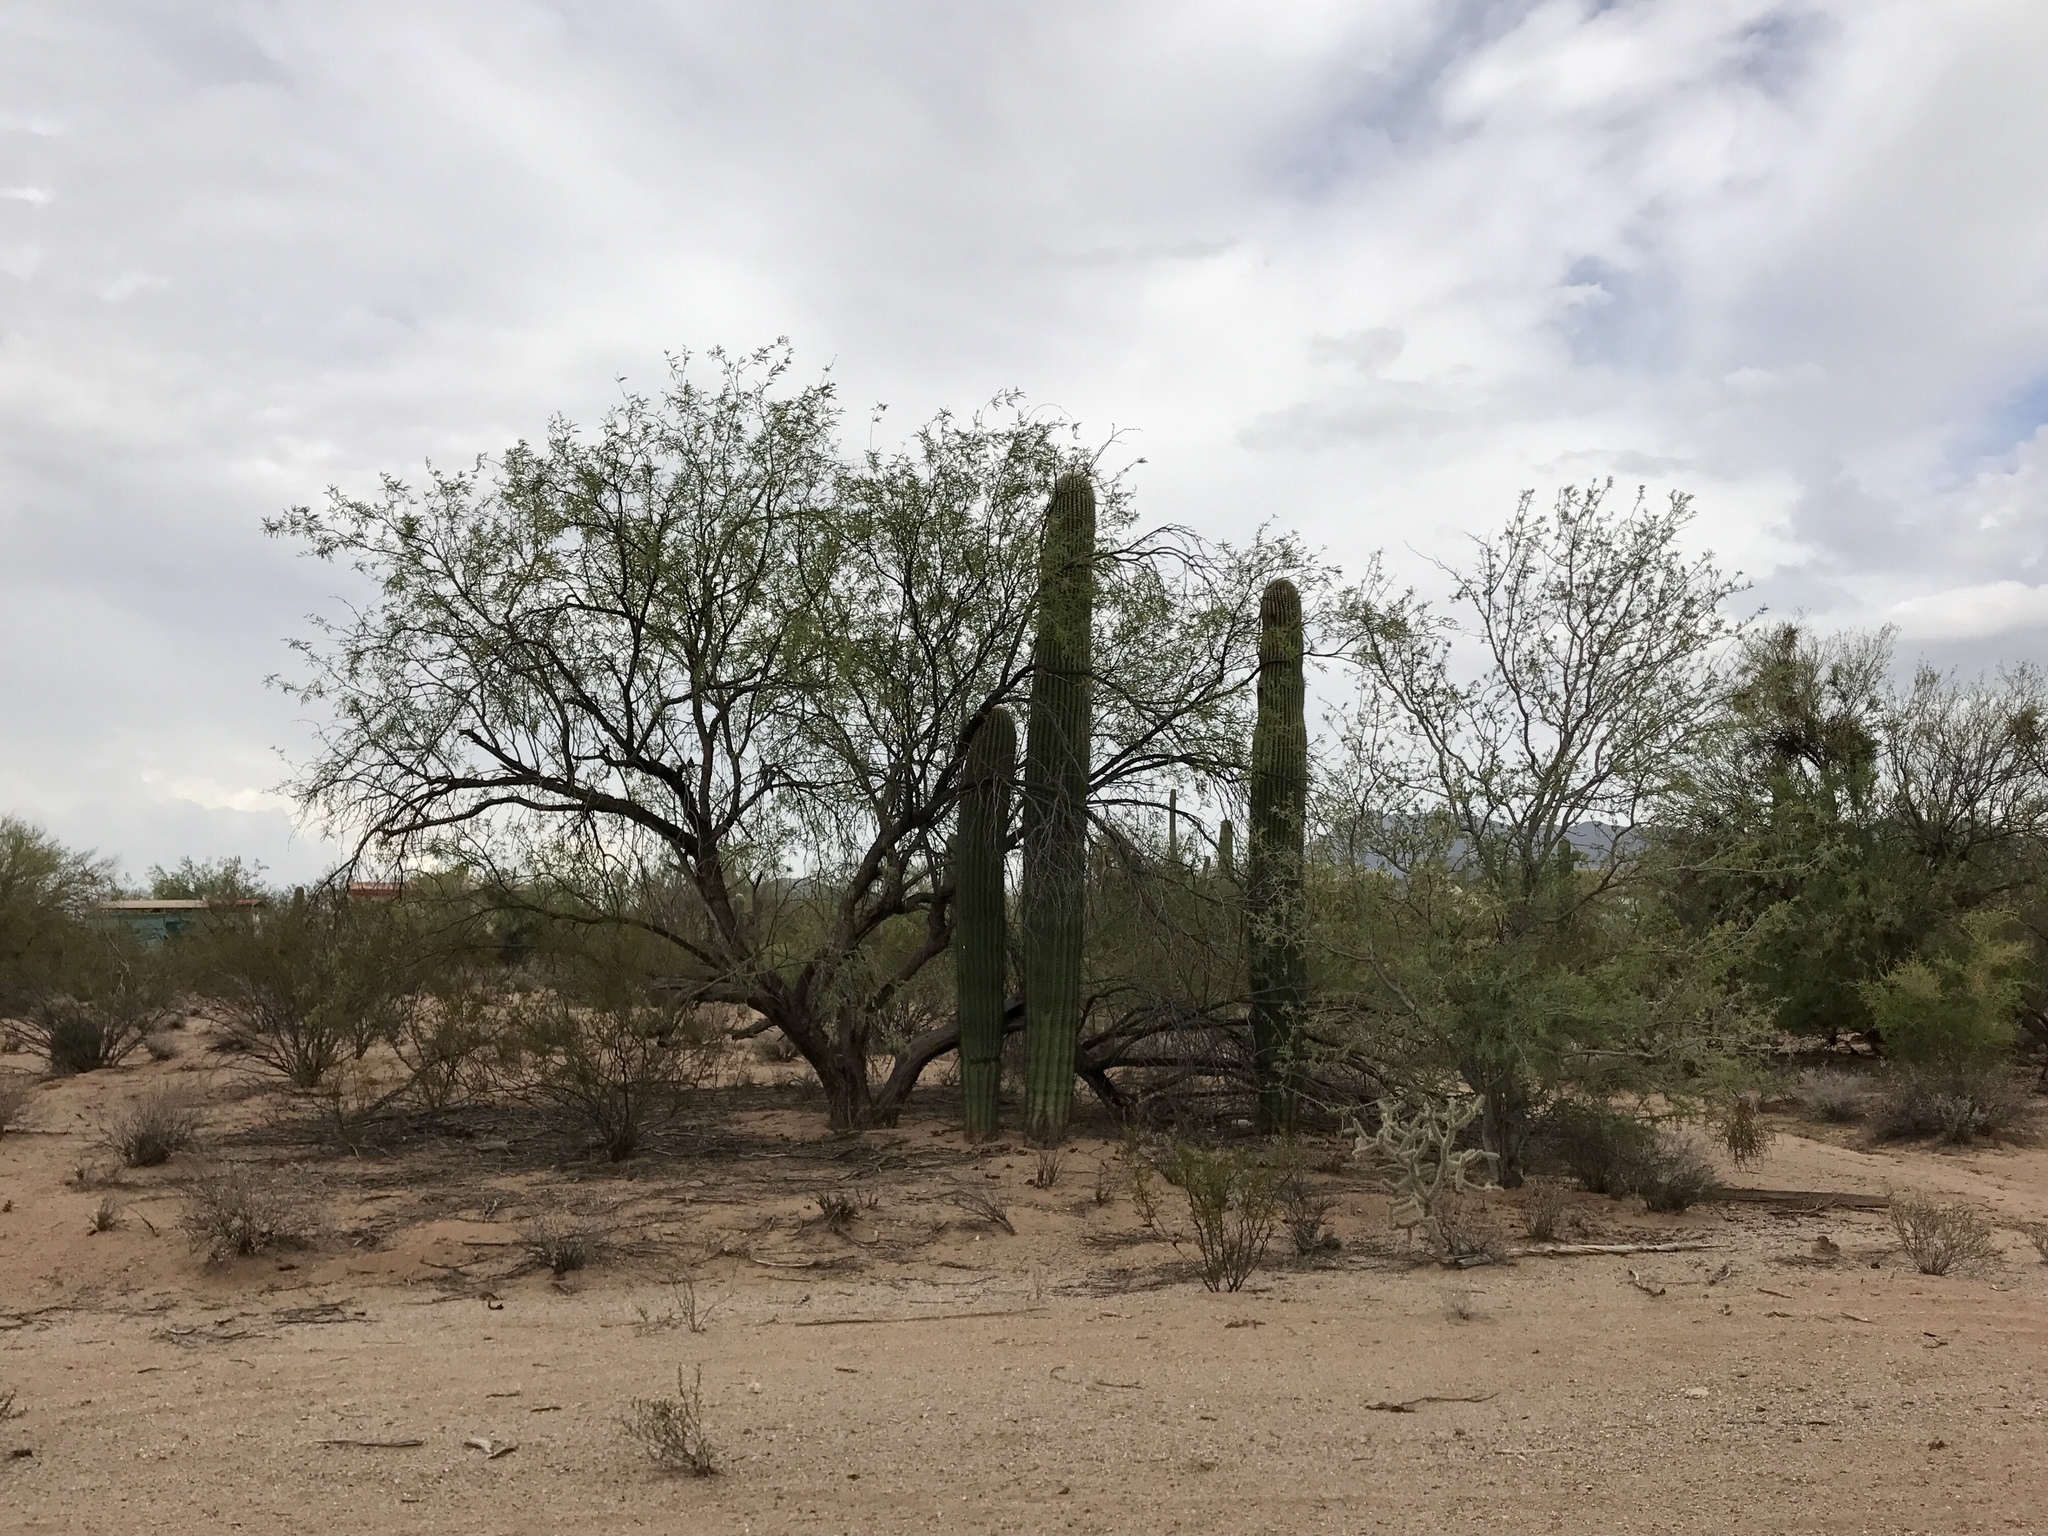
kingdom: Plantae
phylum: Tracheophyta
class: Magnoliopsida
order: Fabales
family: Fabaceae
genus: Prosopis
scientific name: Prosopis velutina
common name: Velvet mesquite
